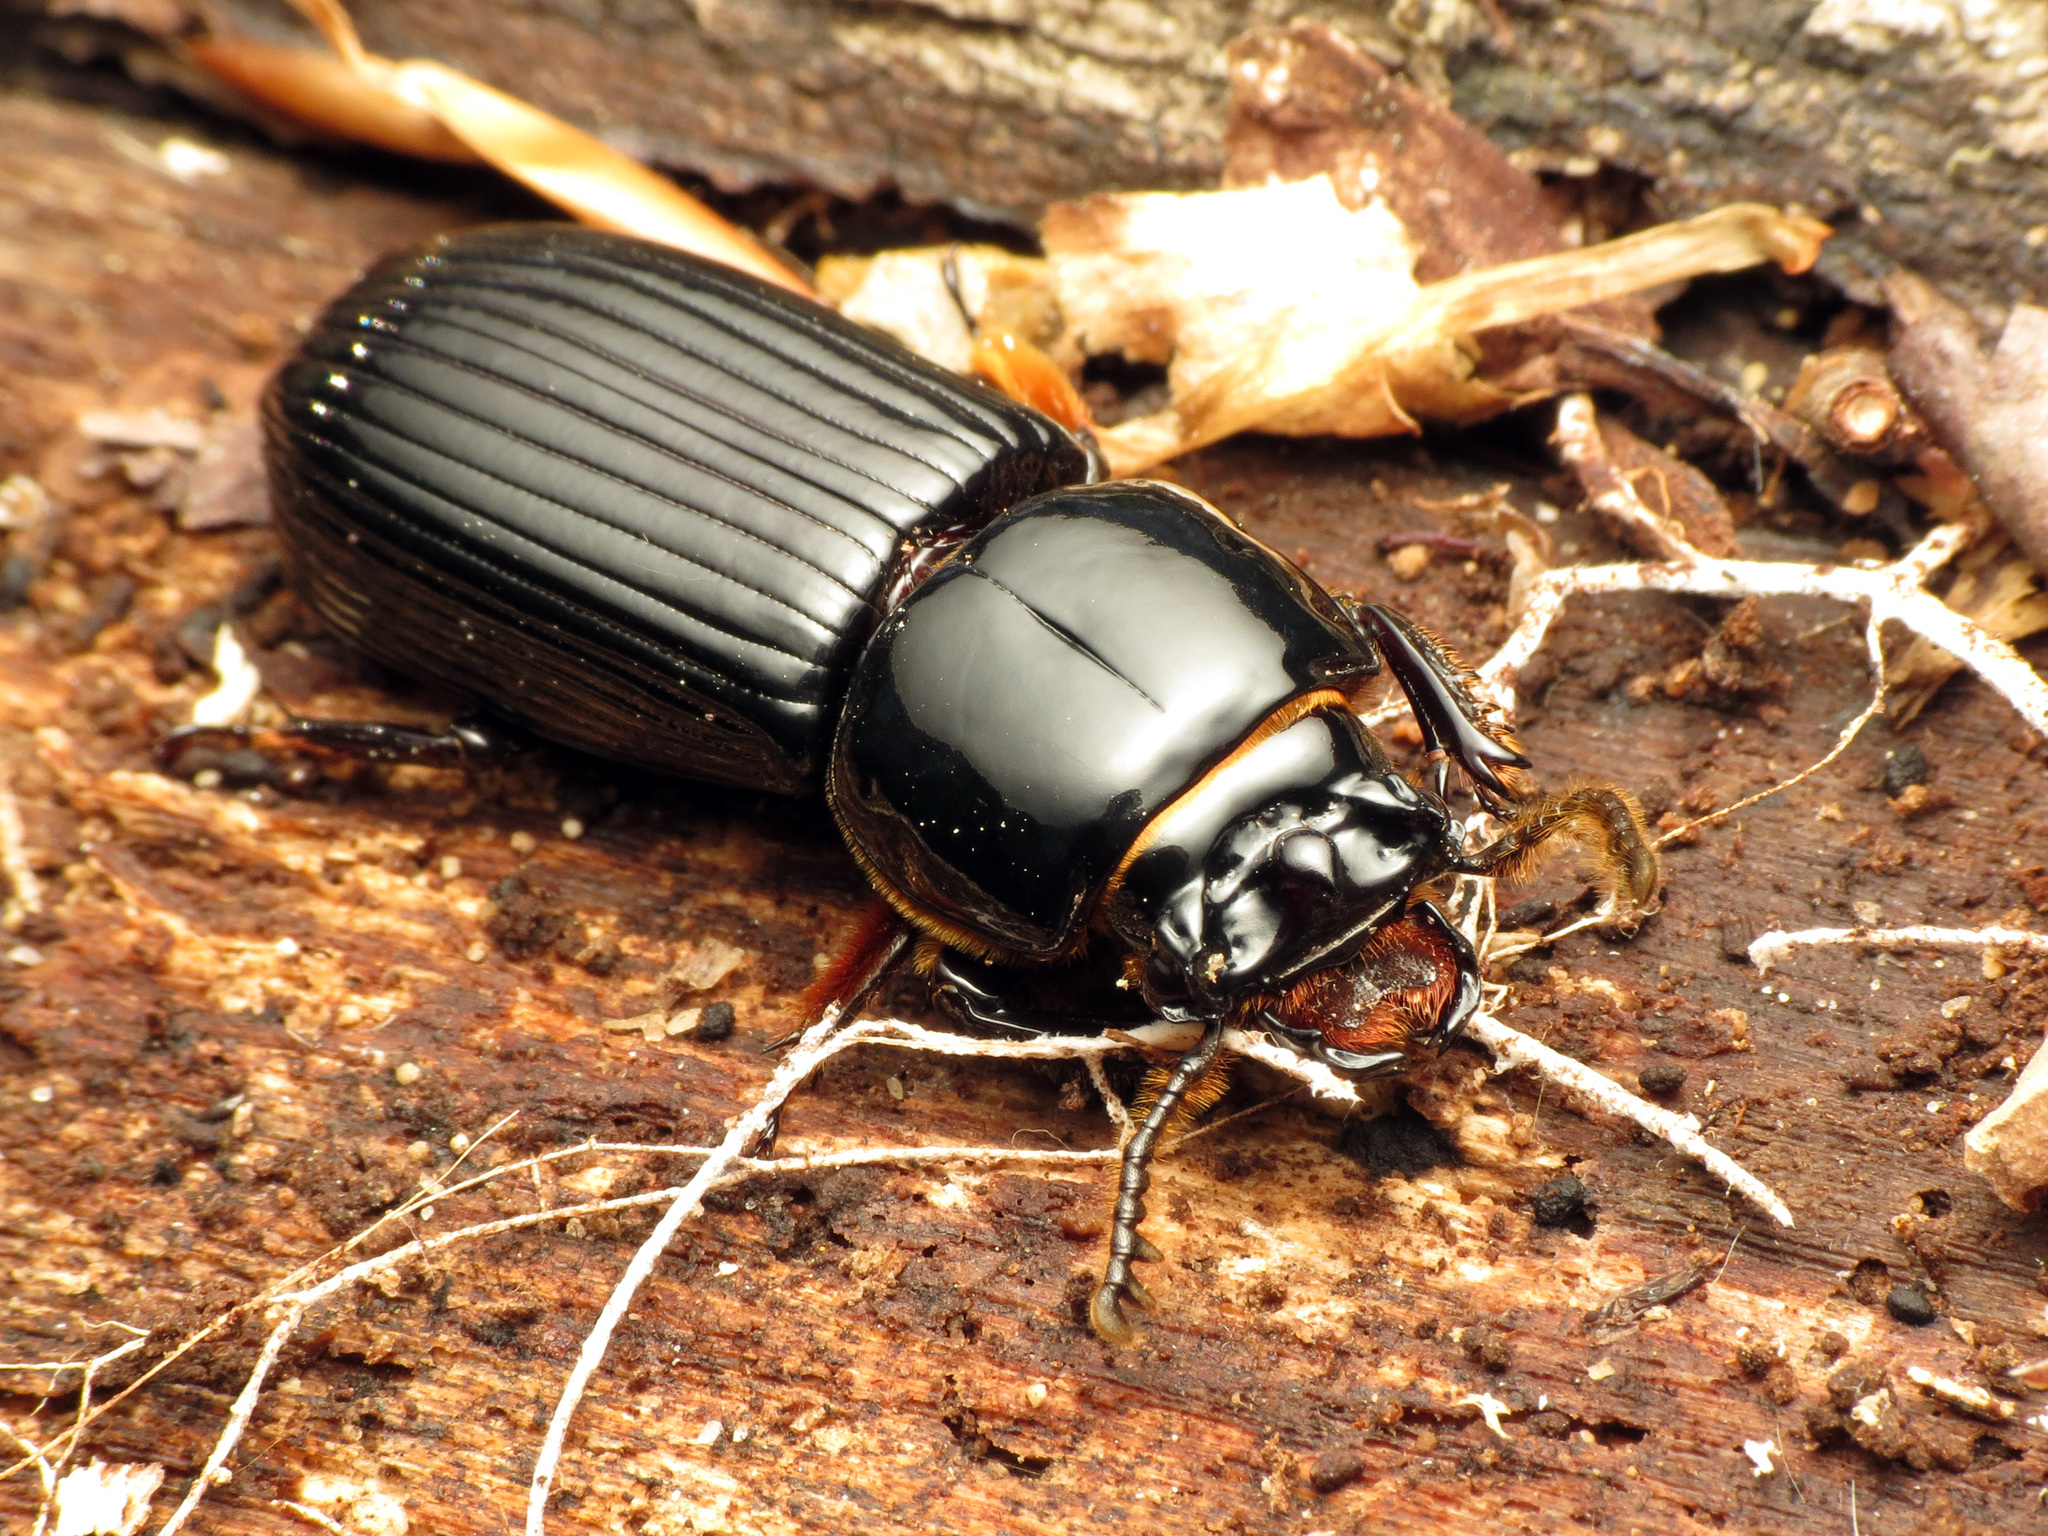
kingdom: Animalia
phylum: Arthropoda
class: Insecta
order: Coleoptera
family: Passalidae
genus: Odontotaenius
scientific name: Odontotaenius disjunctus
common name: Patent leather beetle
